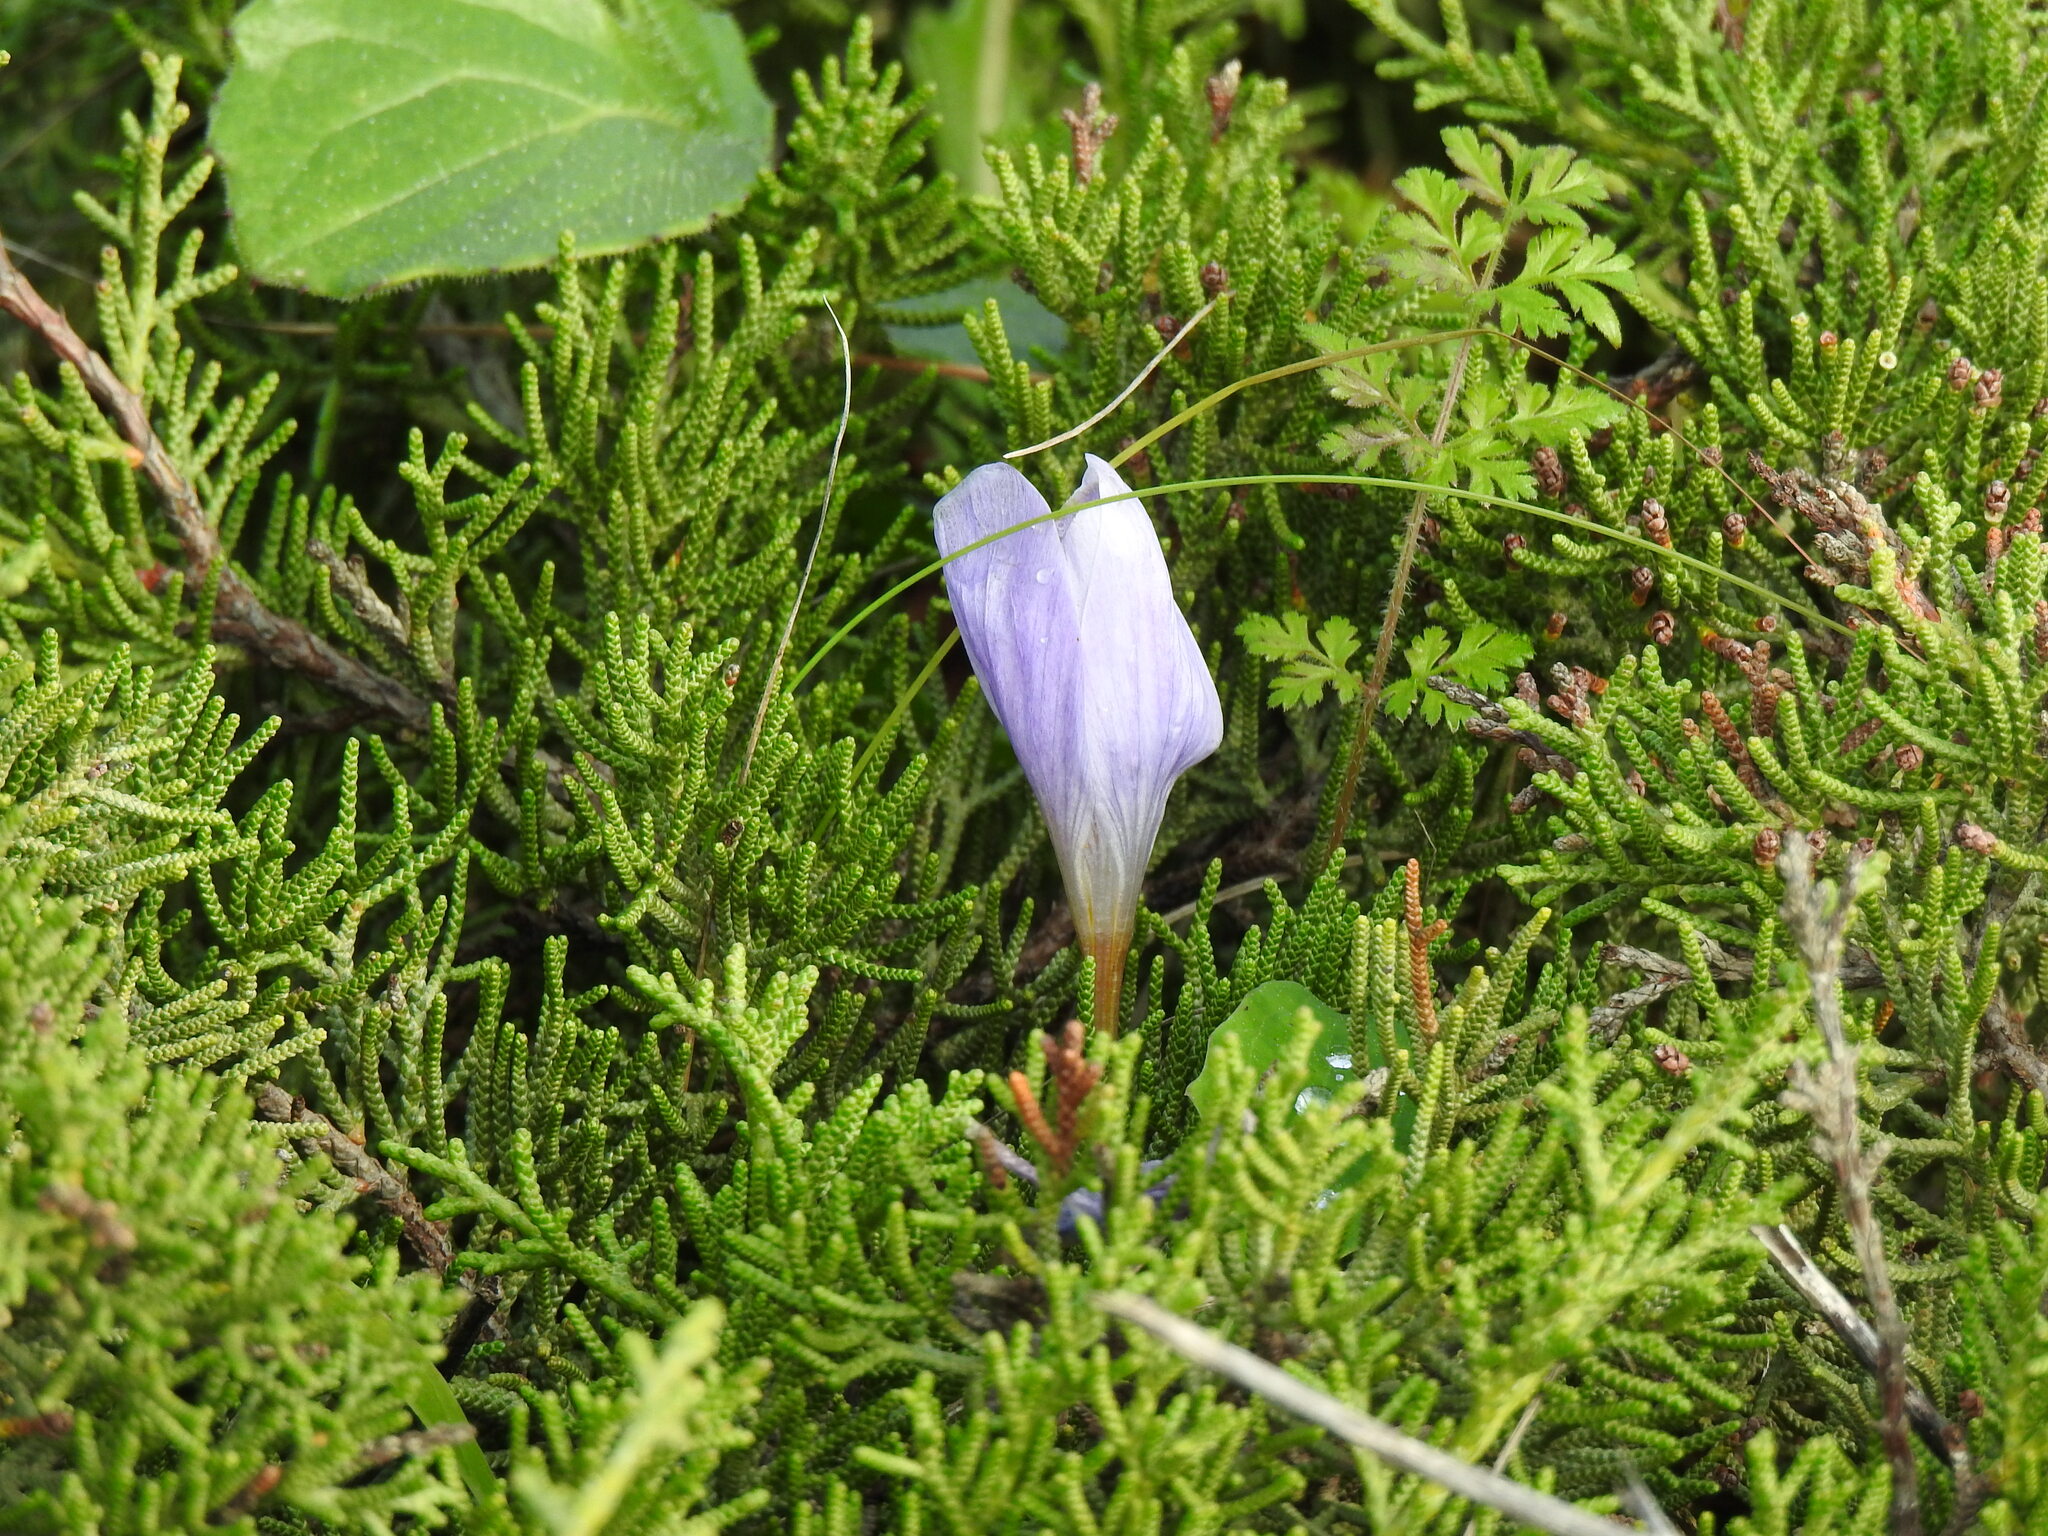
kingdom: Plantae
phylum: Tracheophyta
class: Liliopsida
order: Asparagales
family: Iridaceae
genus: Crocus
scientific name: Crocus serotinus
